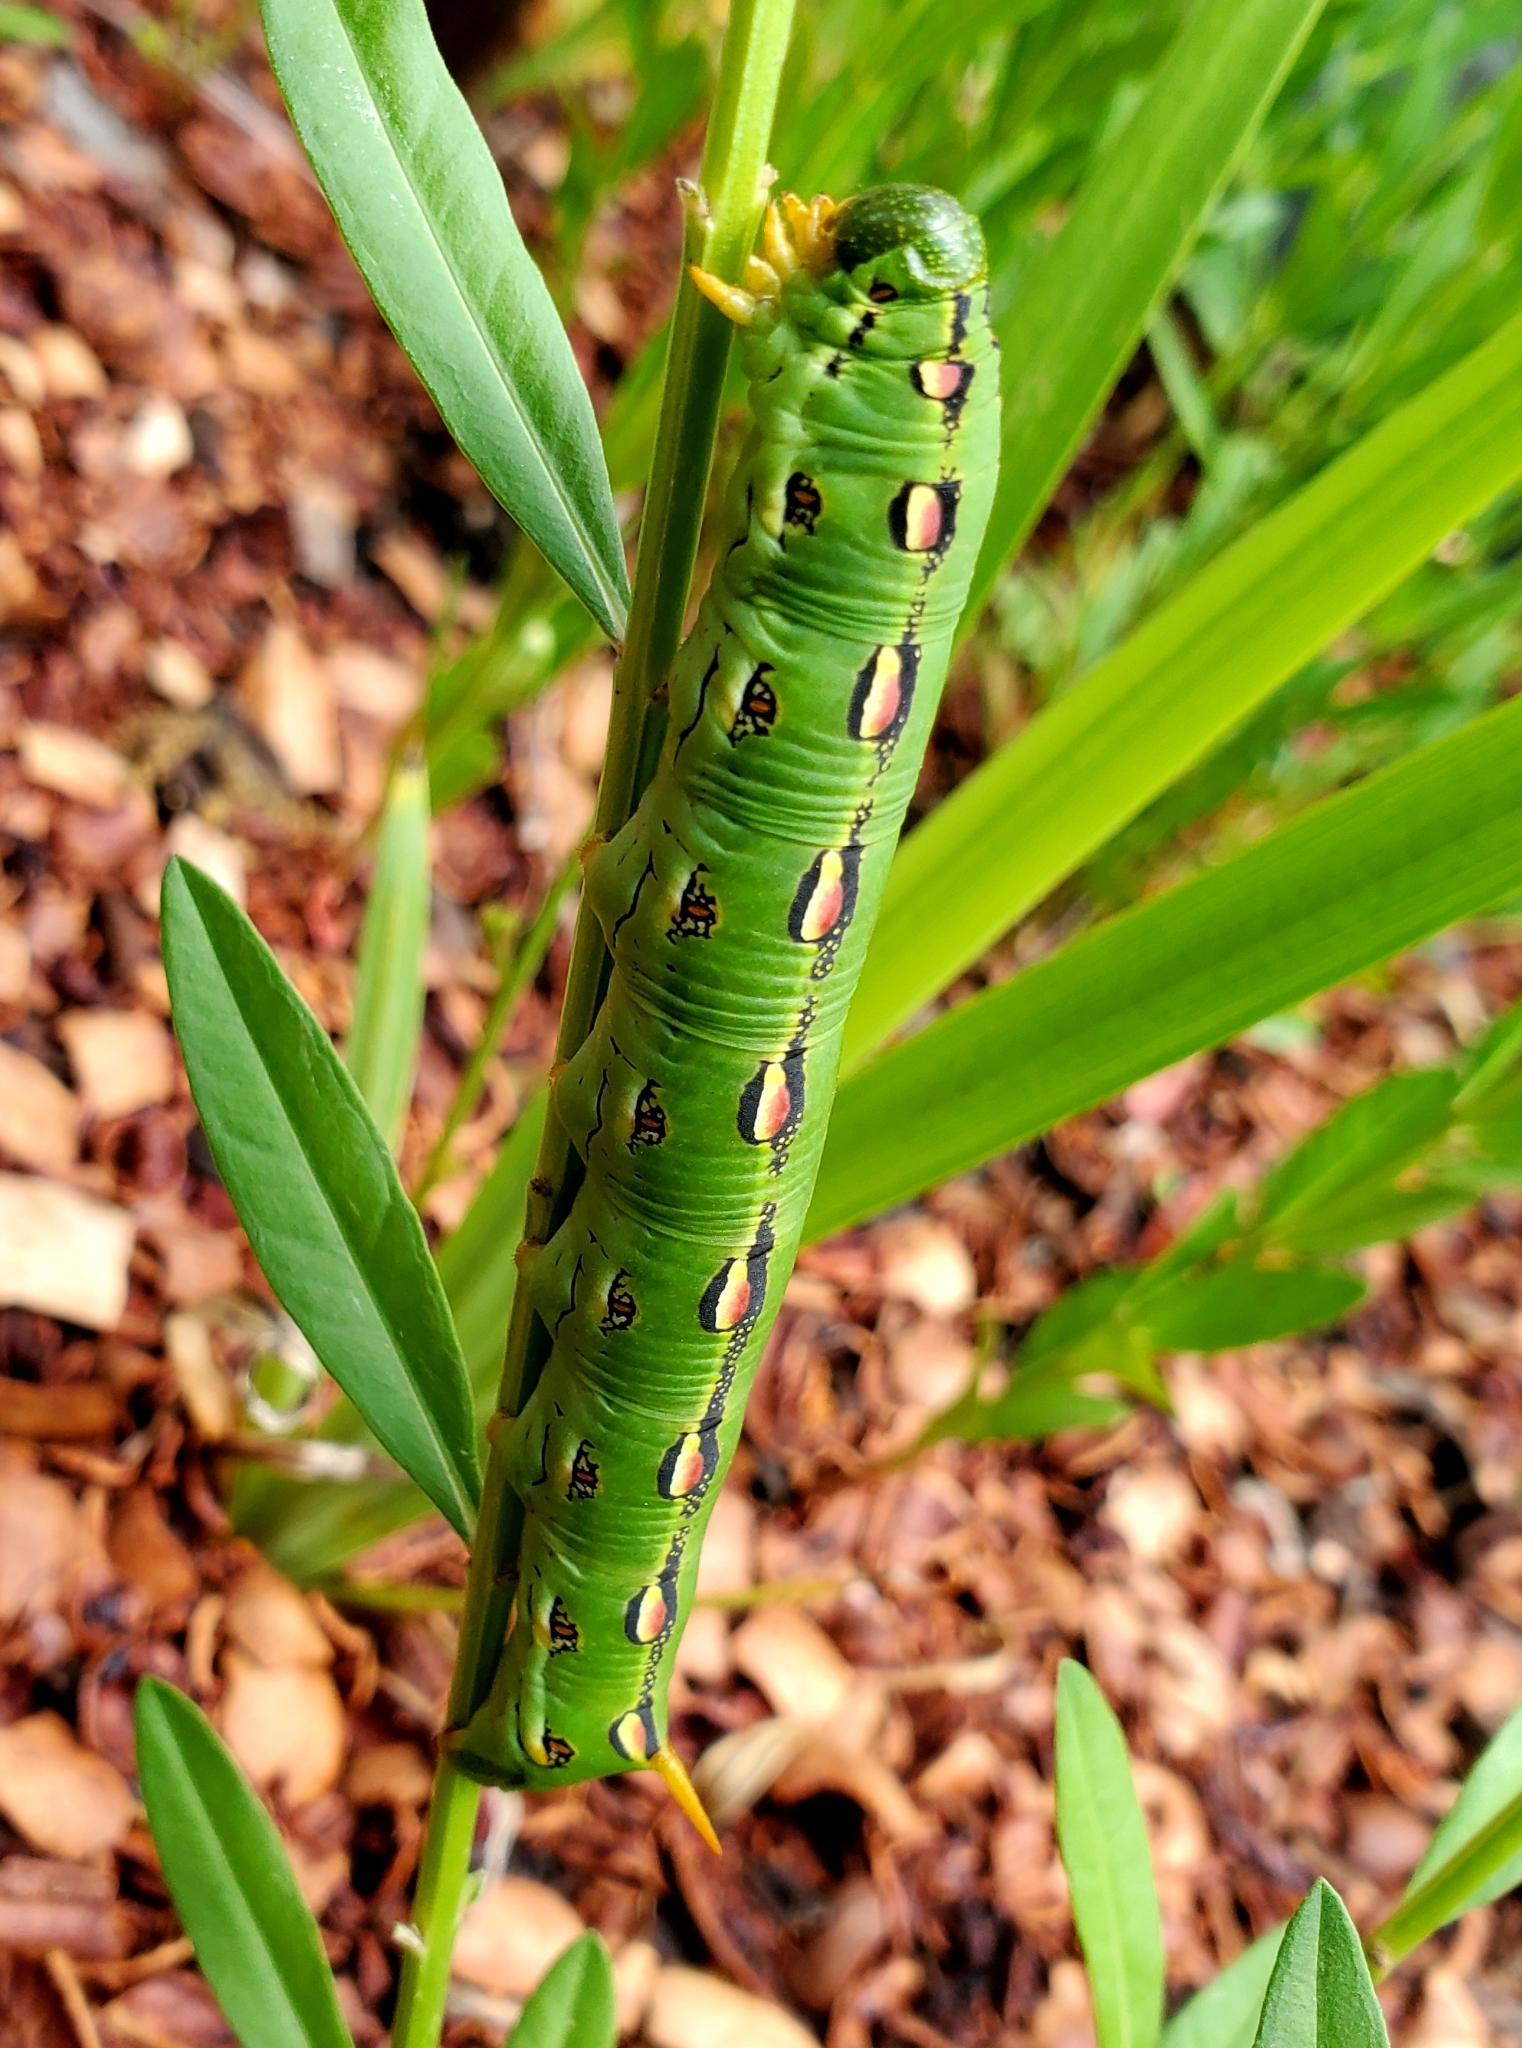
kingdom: Animalia
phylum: Arthropoda
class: Insecta
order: Lepidoptera
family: Sphingidae
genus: Hyles
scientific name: Hyles lineata
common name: White-lined sphinx
